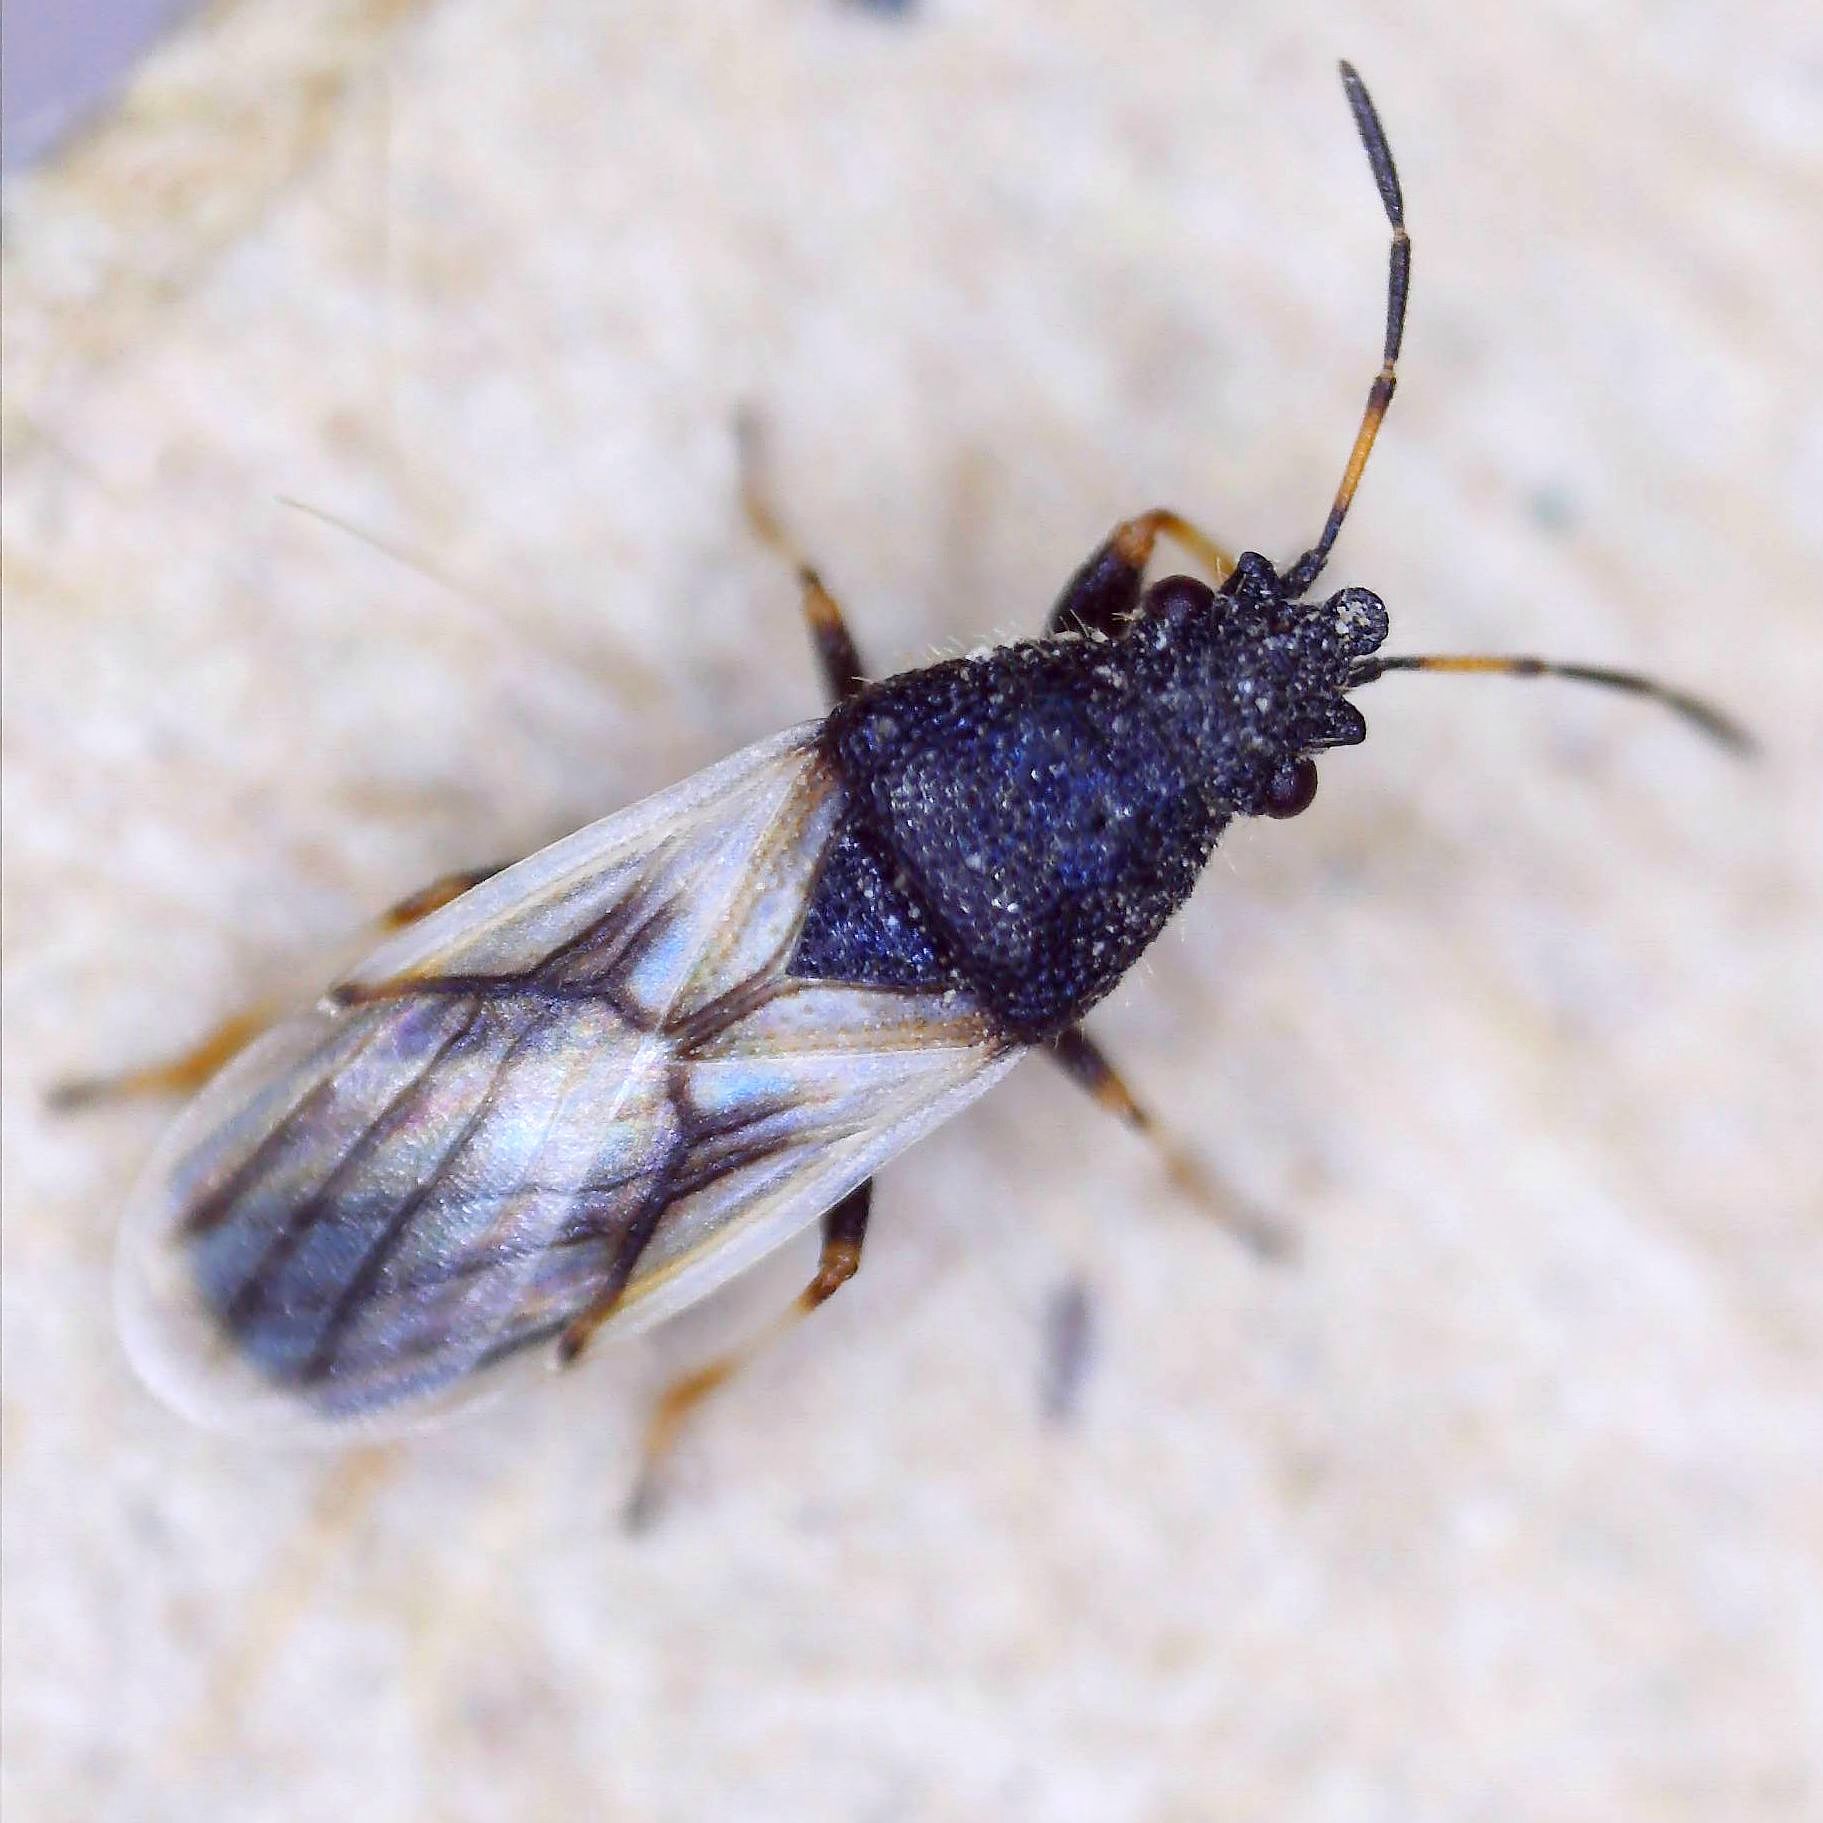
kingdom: Animalia
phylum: Arthropoda
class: Insecta
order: Hemiptera
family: Oxycarenidae
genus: Metopoplax
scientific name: Metopoplax ditomoides
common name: Seed bug
